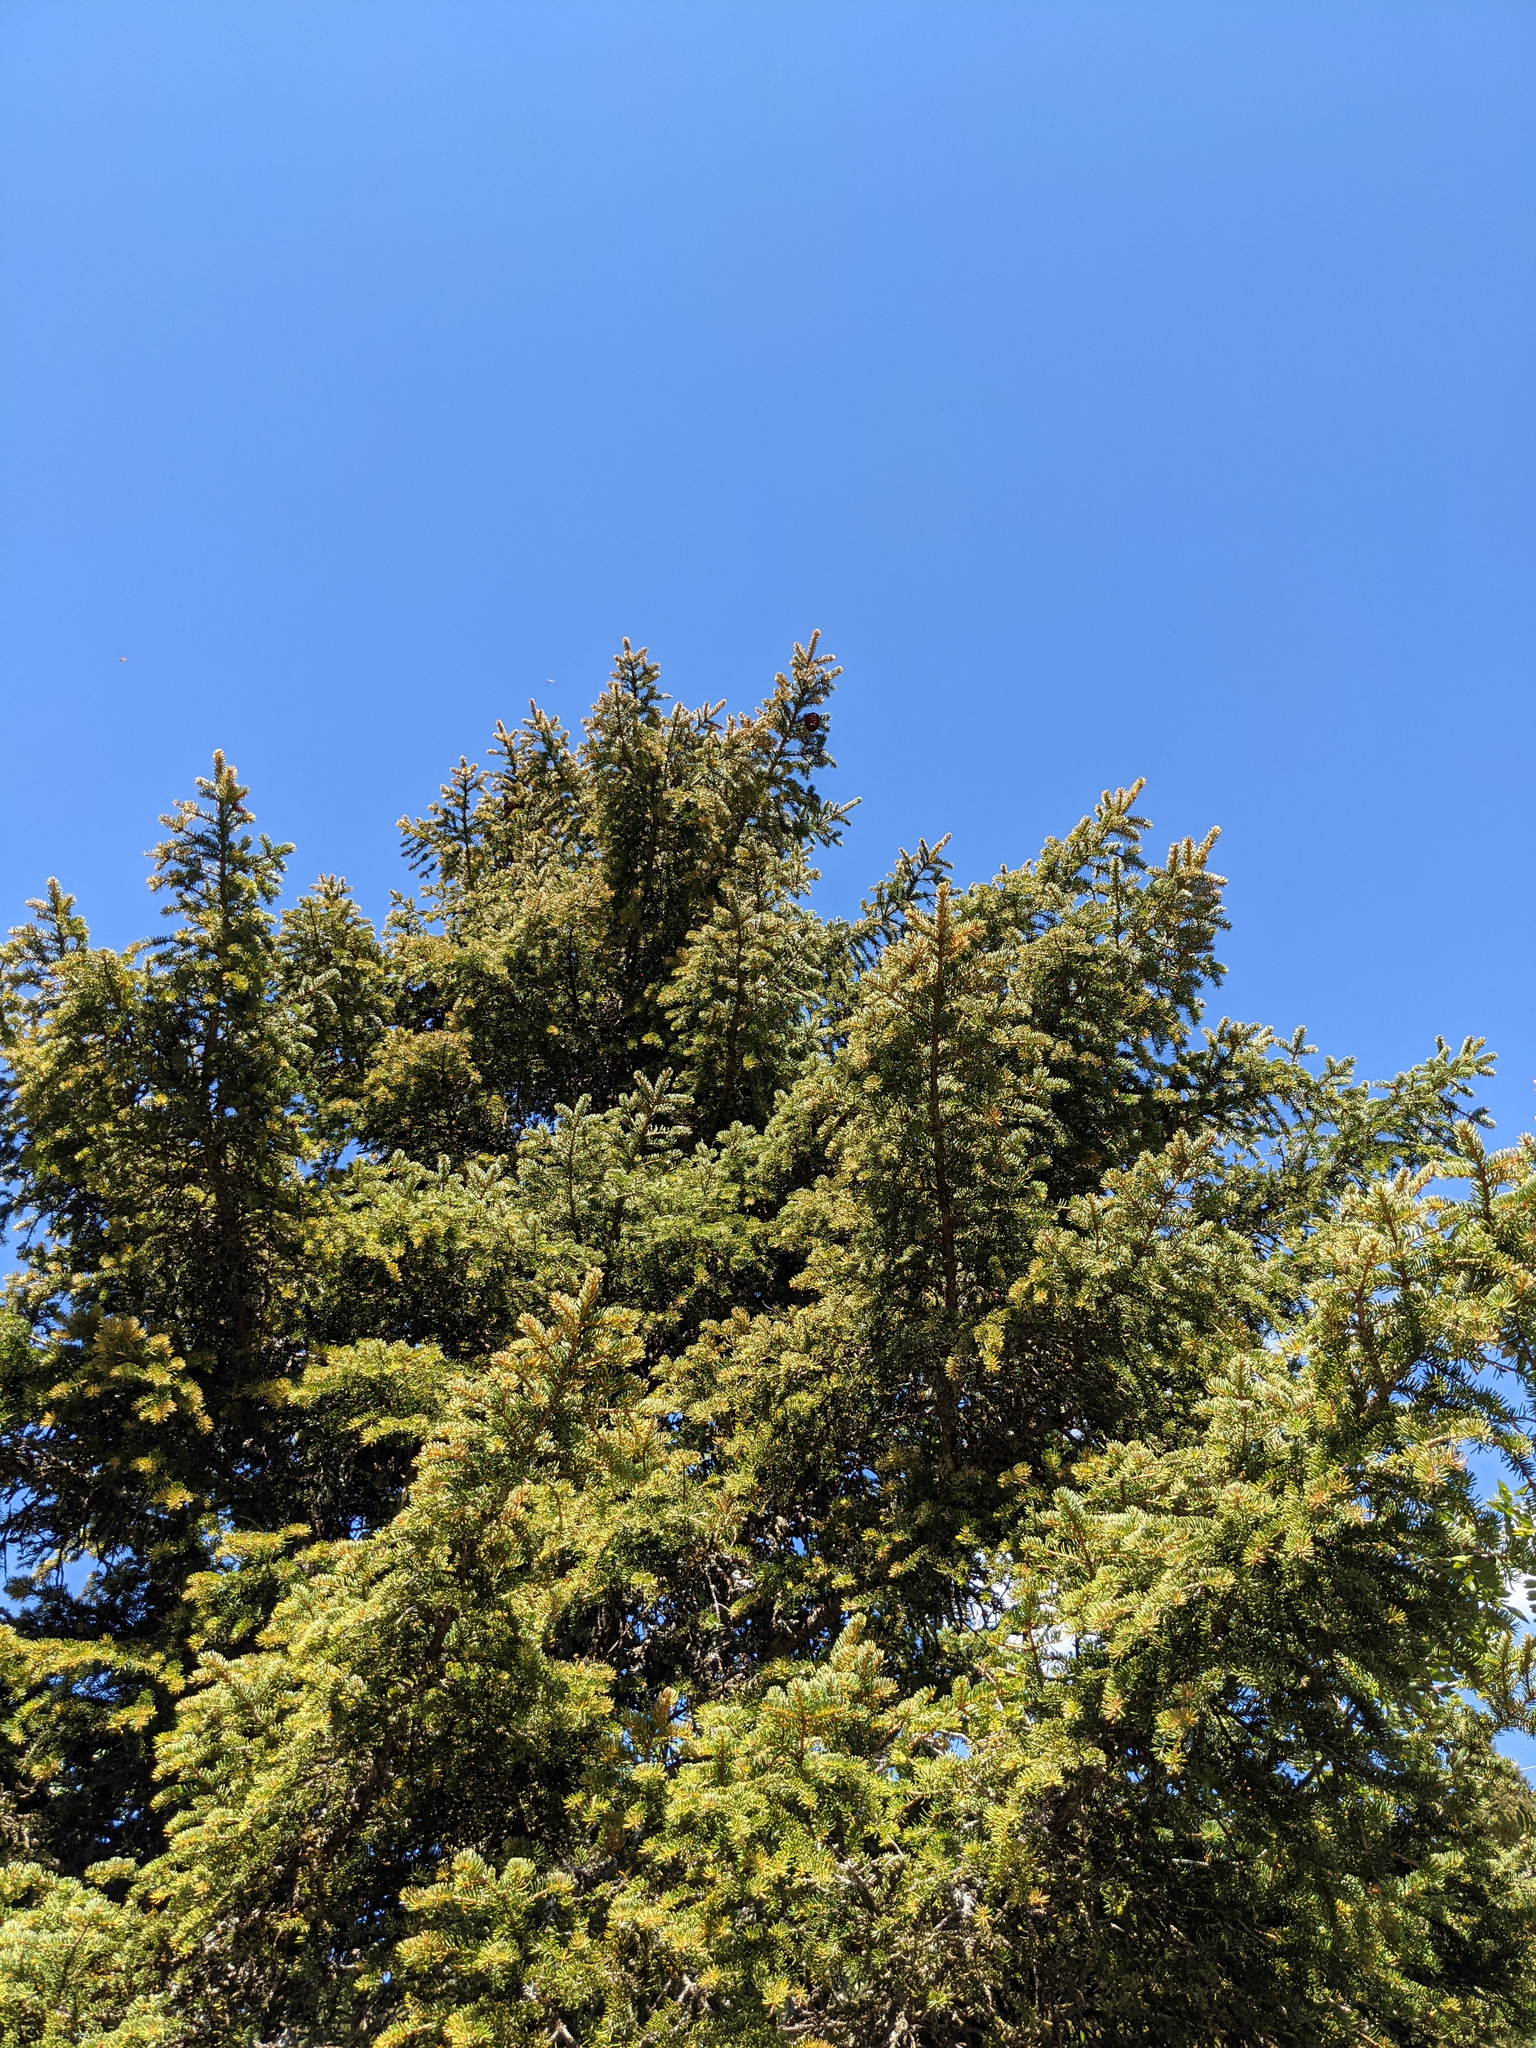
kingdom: Plantae
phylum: Tracheophyta
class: Pinopsida
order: Pinales
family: Pinaceae
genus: Picea
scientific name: Picea abies
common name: Norway spruce
